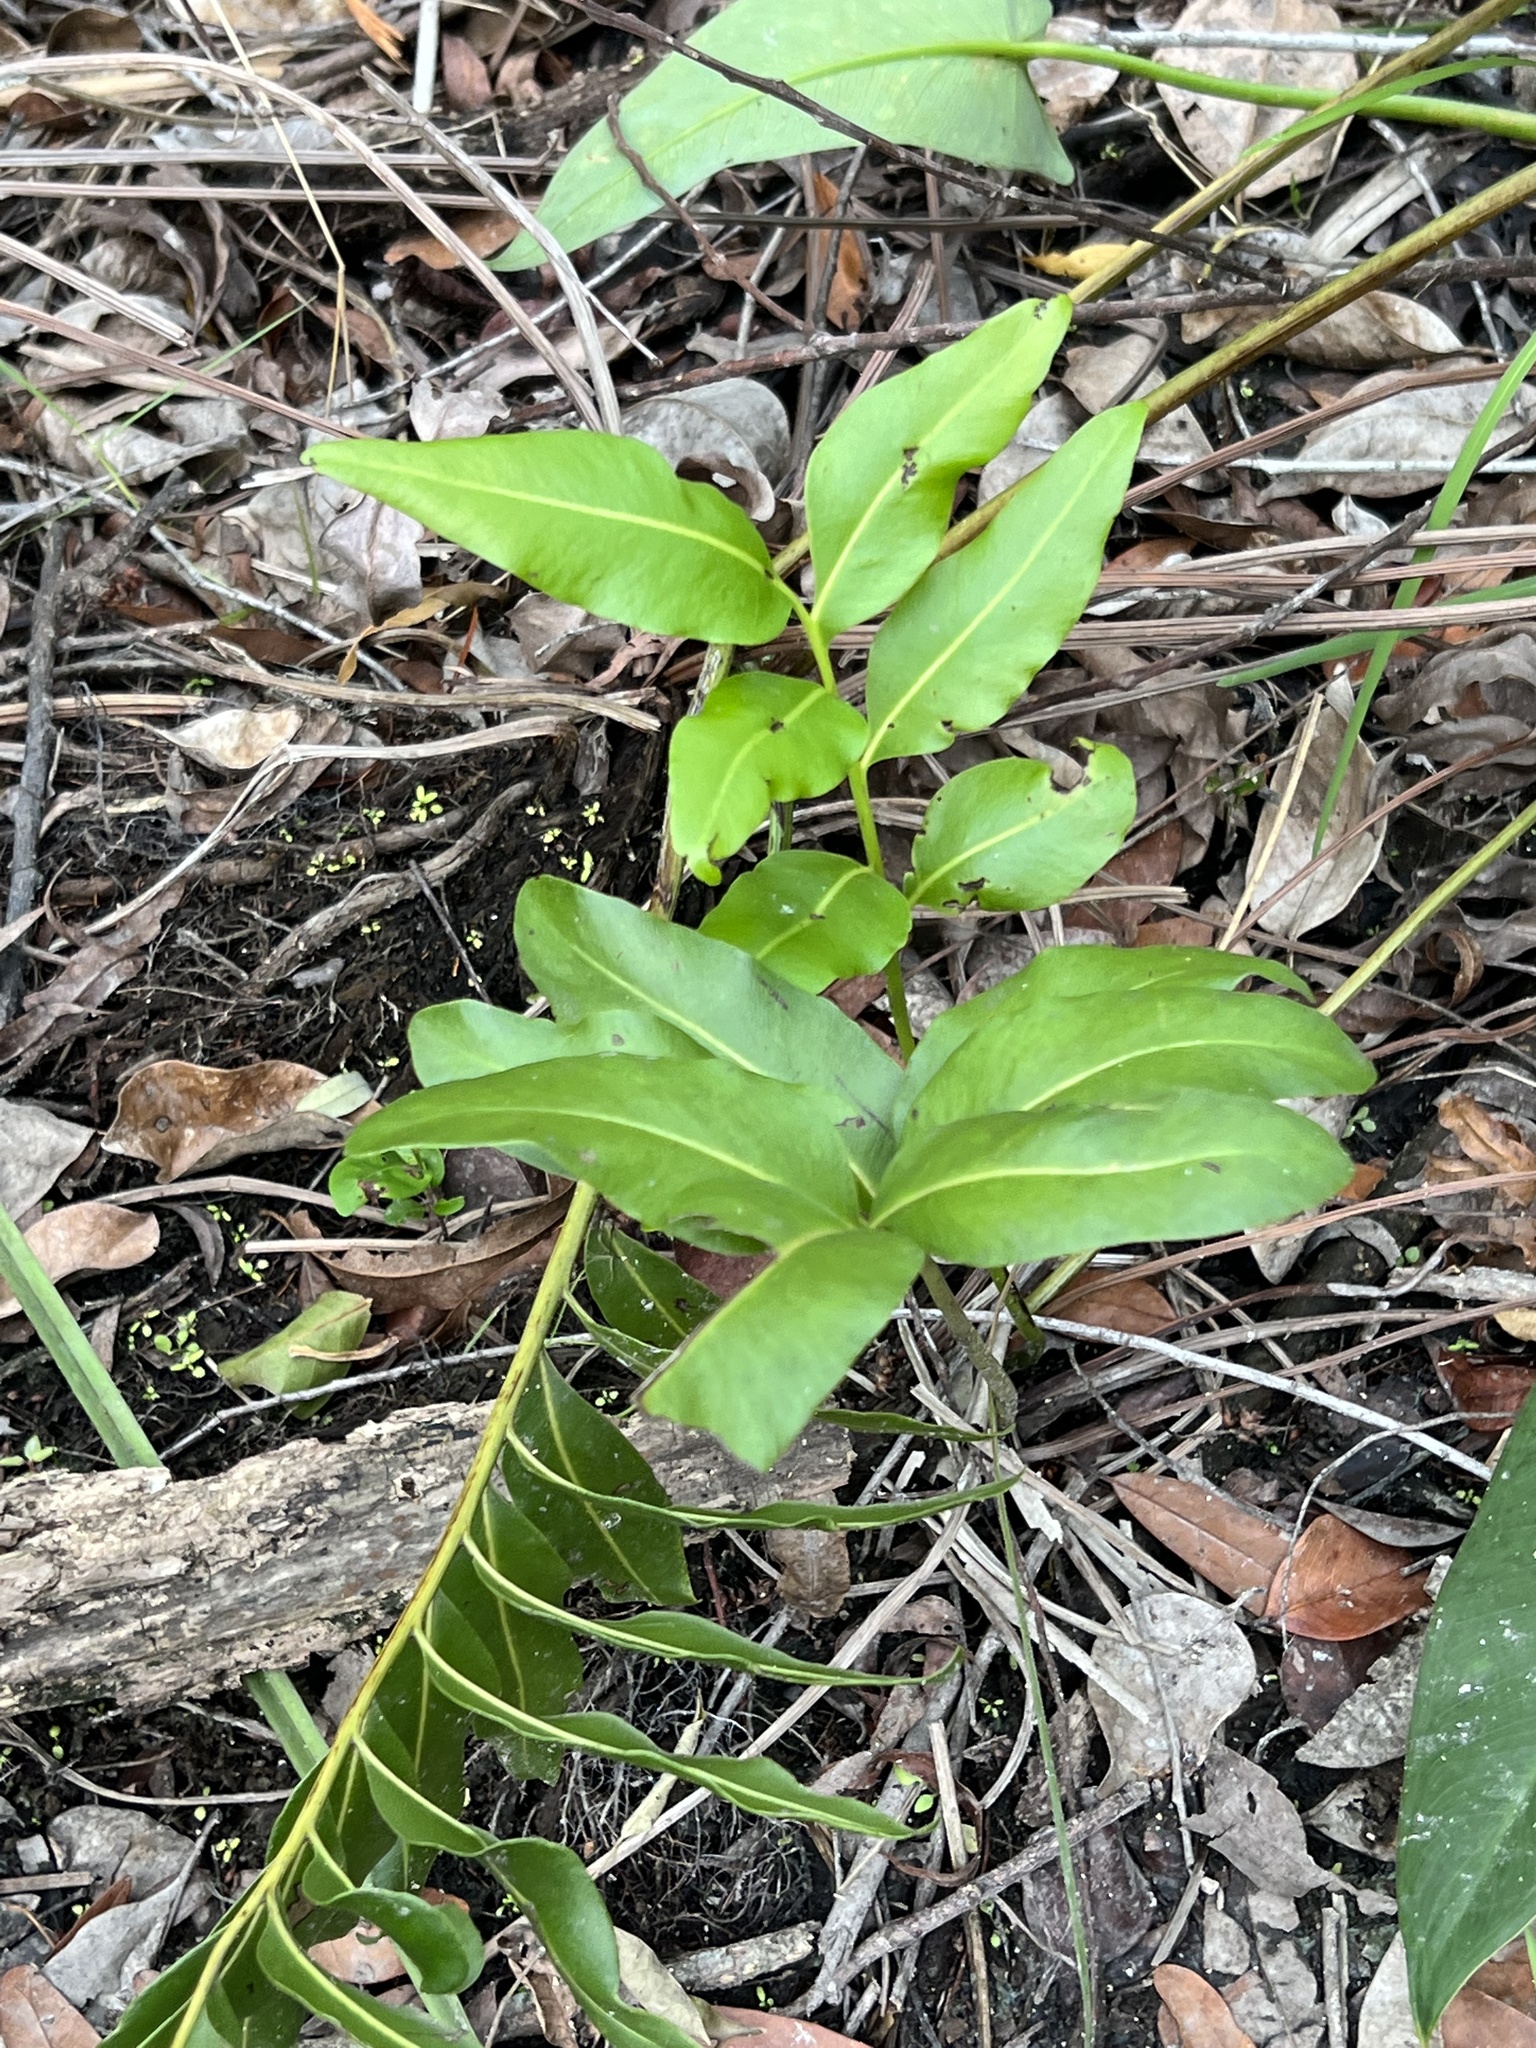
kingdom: Plantae
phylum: Tracheophyta
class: Polypodiopsida
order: Polypodiales
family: Pteridaceae
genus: Acrostichum
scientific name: Acrostichum danaeifolium
